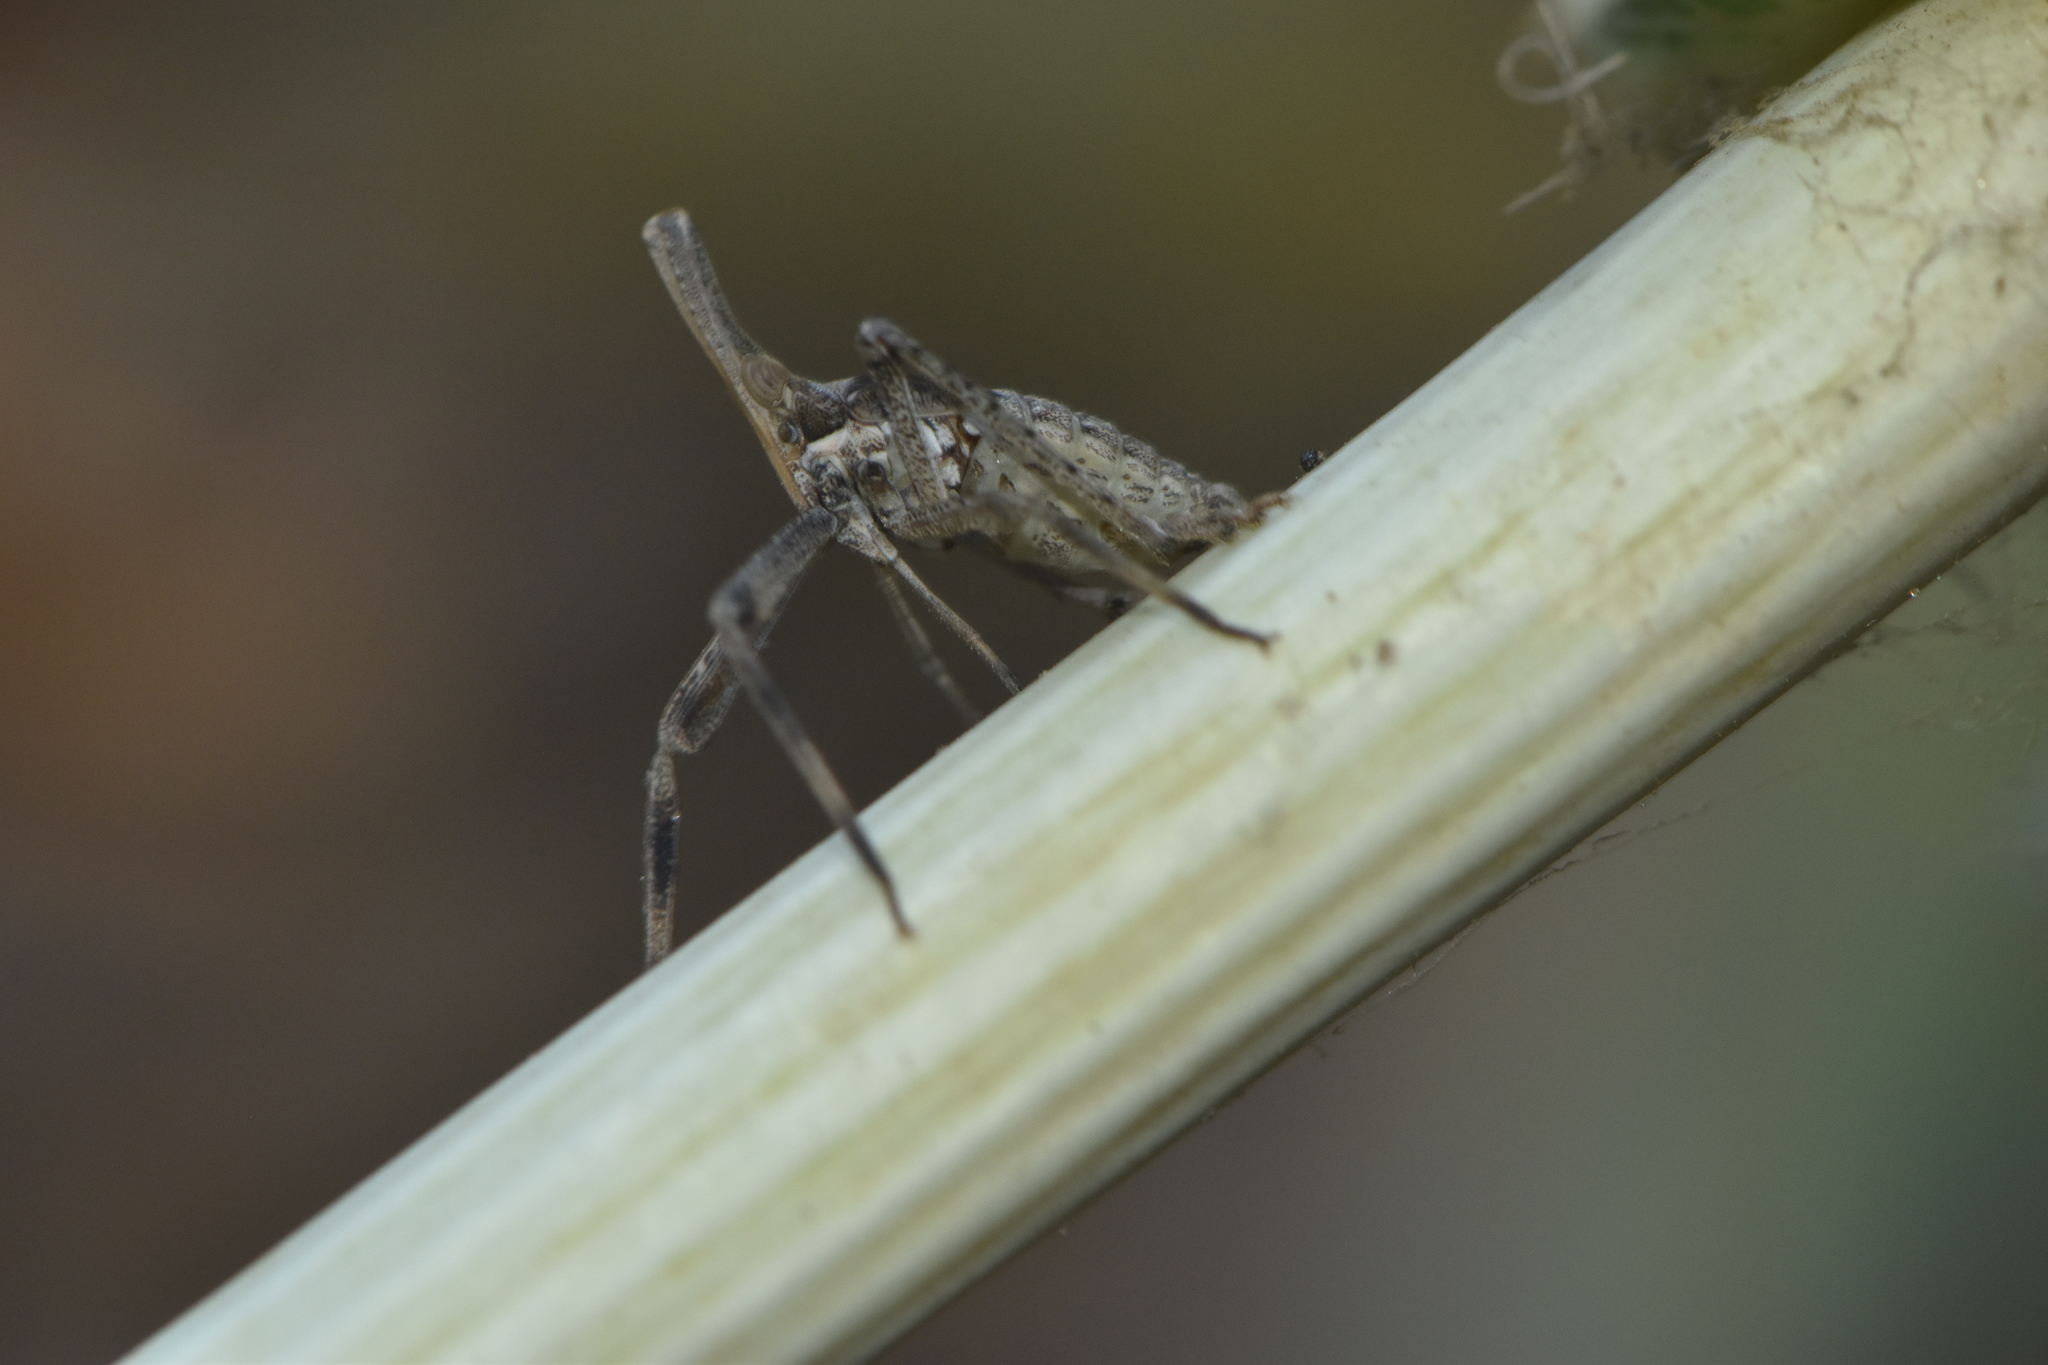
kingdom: Animalia
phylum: Arthropoda
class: Insecta
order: Hemiptera
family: Dictyopharidae
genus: Almana
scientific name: Almana longipes
